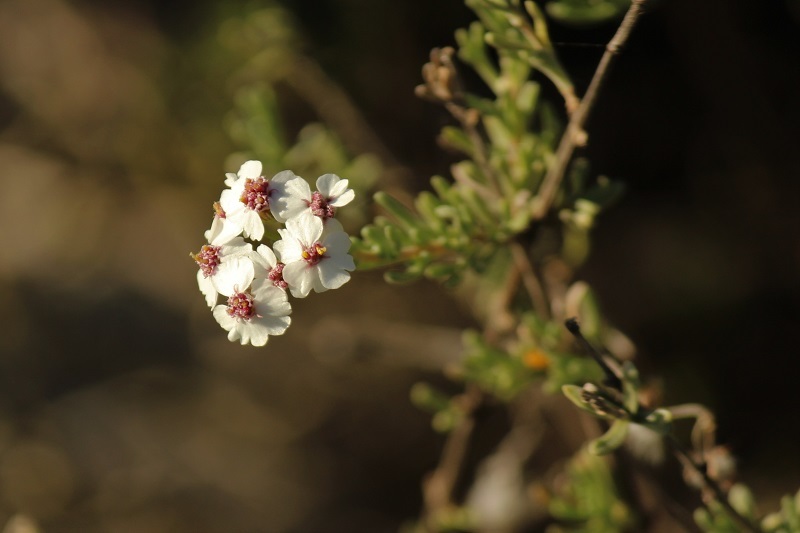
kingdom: Plantae
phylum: Tracheophyta
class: Magnoliopsida
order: Asterales
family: Asteraceae
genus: Eriocephalus
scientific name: Eriocephalus africanus
